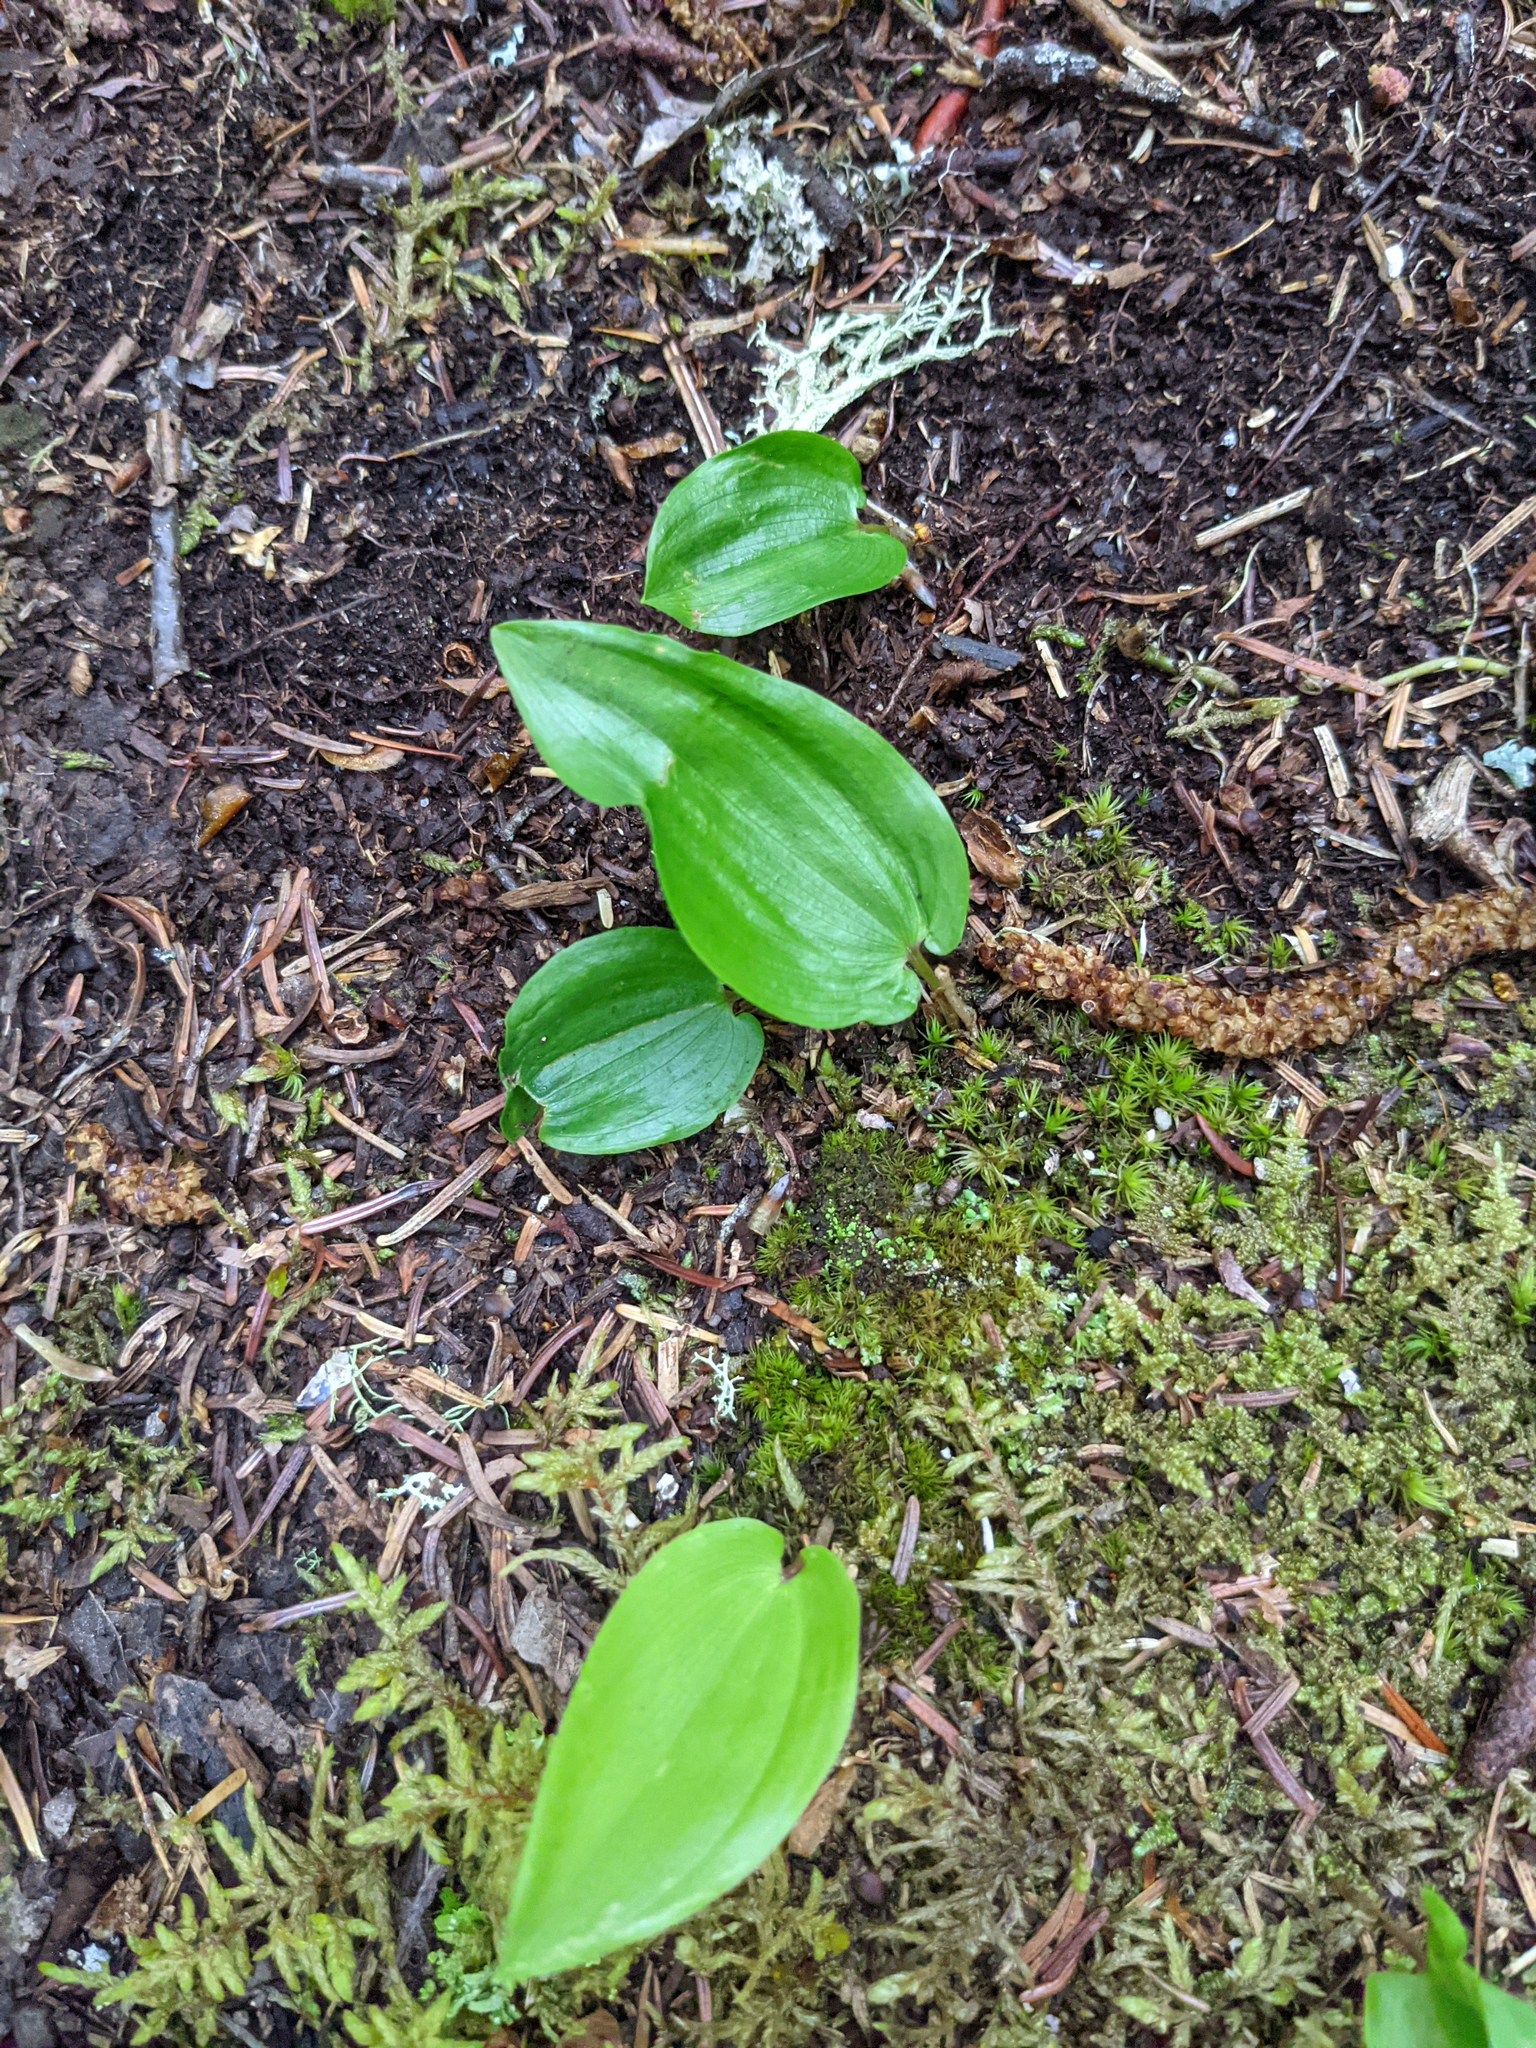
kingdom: Plantae
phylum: Tracheophyta
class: Liliopsida
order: Asparagales
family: Asparagaceae
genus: Maianthemum
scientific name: Maianthemum canadense
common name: False lily-of-the-valley
